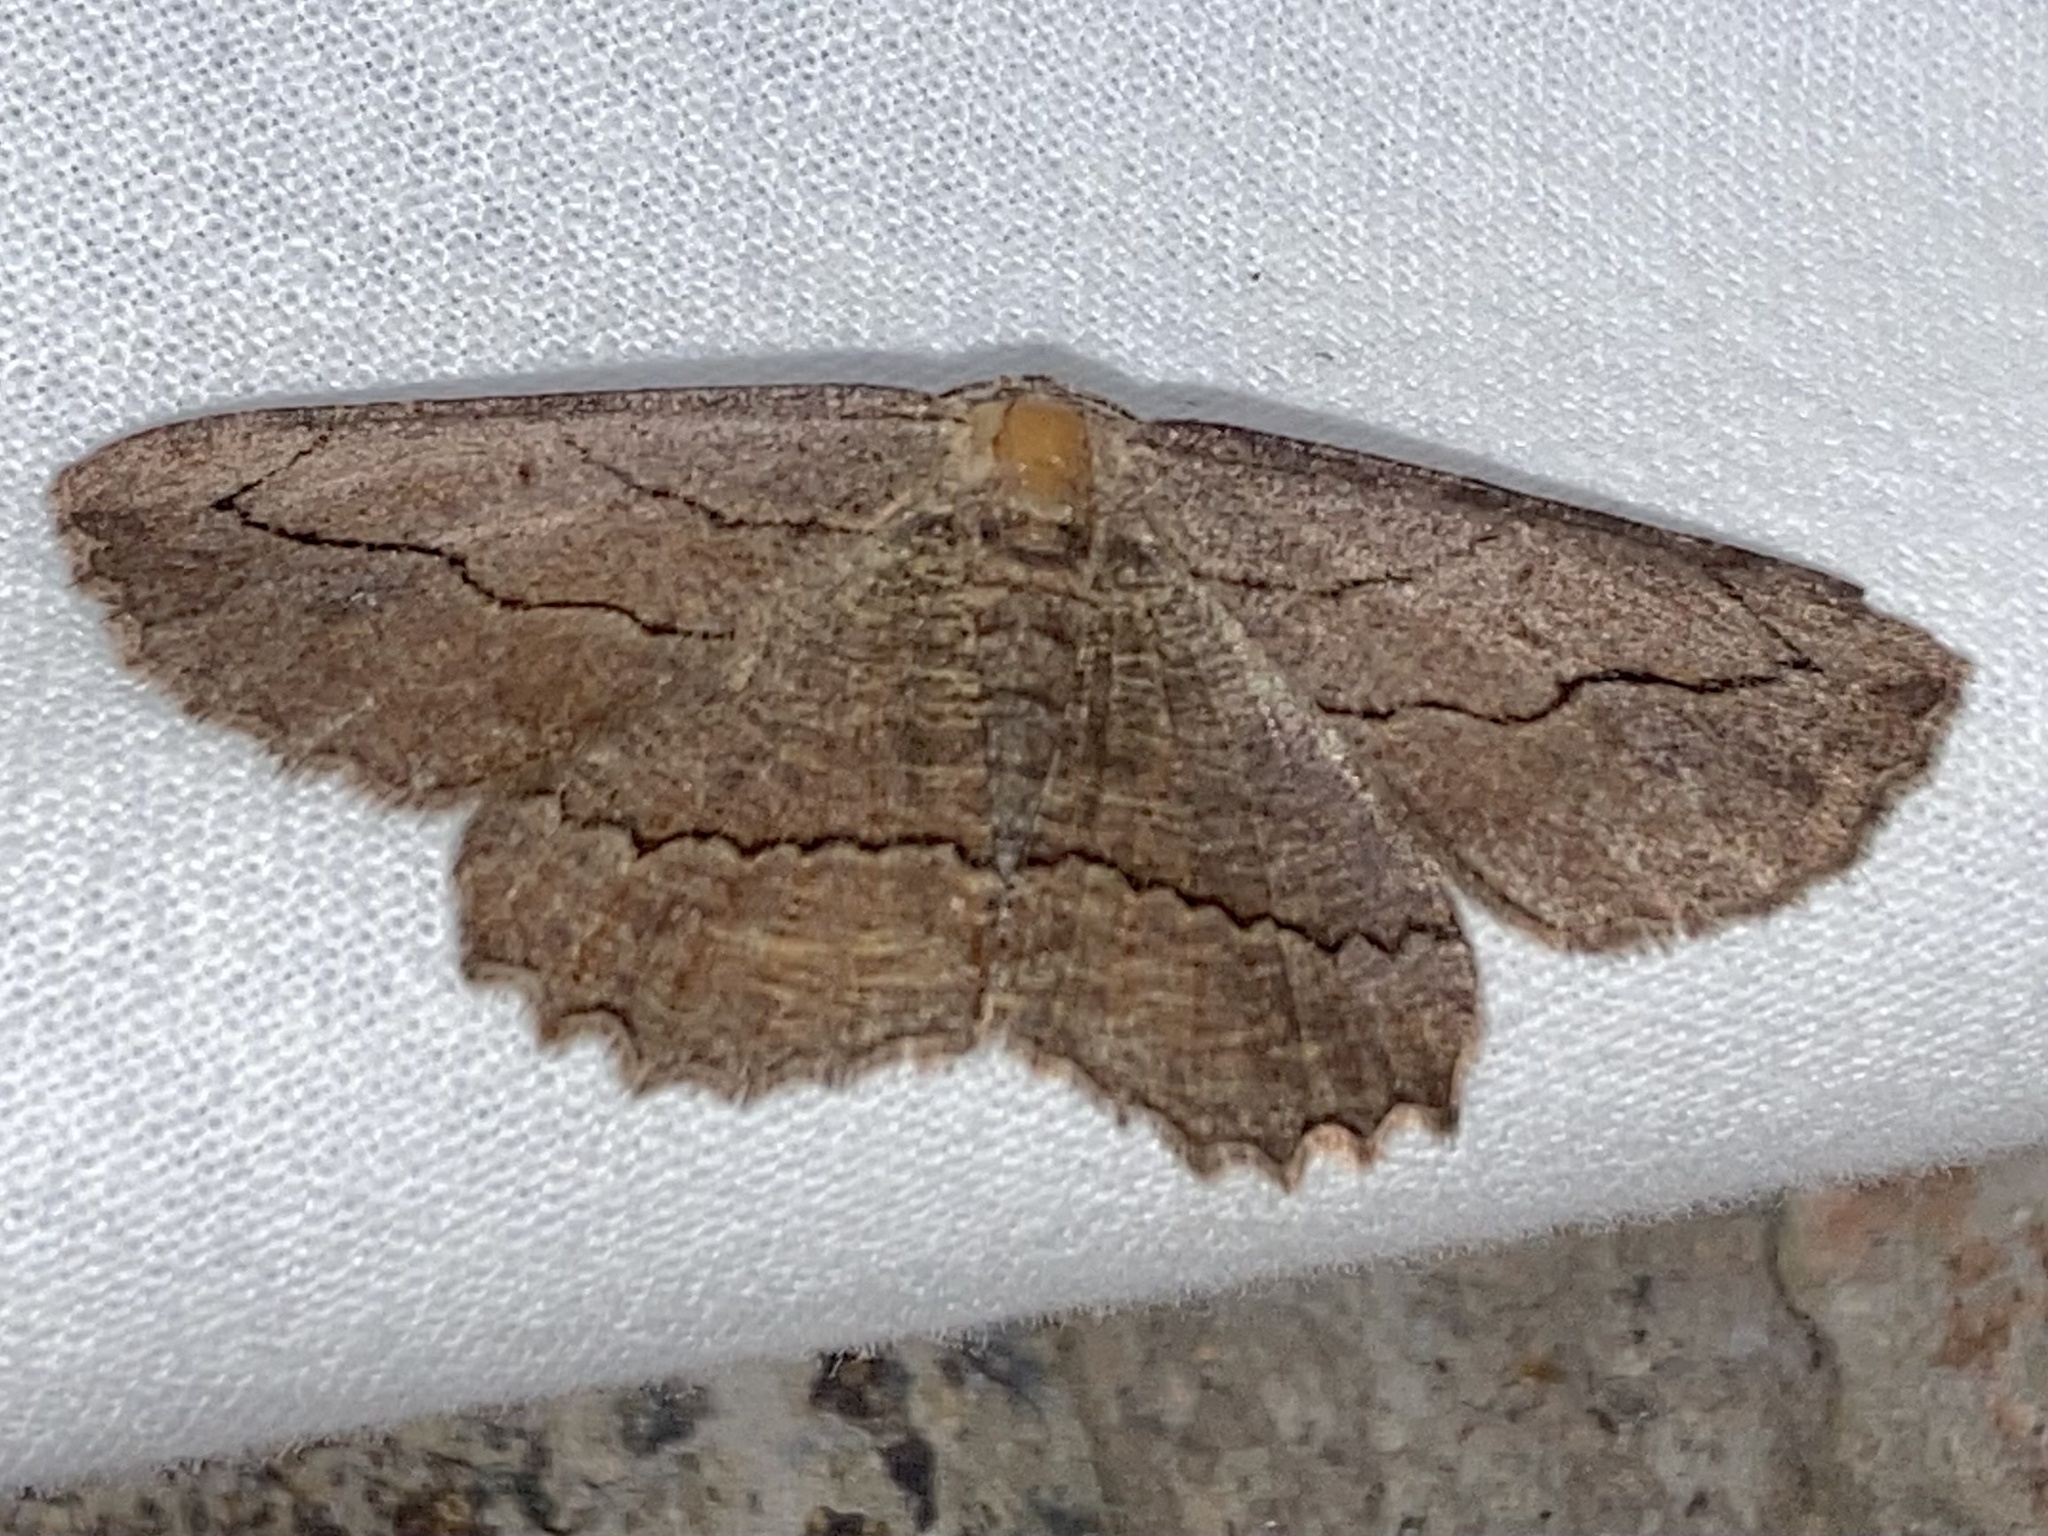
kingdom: Animalia
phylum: Arthropoda
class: Insecta
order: Lepidoptera
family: Geometridae
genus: Menophra
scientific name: Menophra abruptaria
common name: Waved umber
